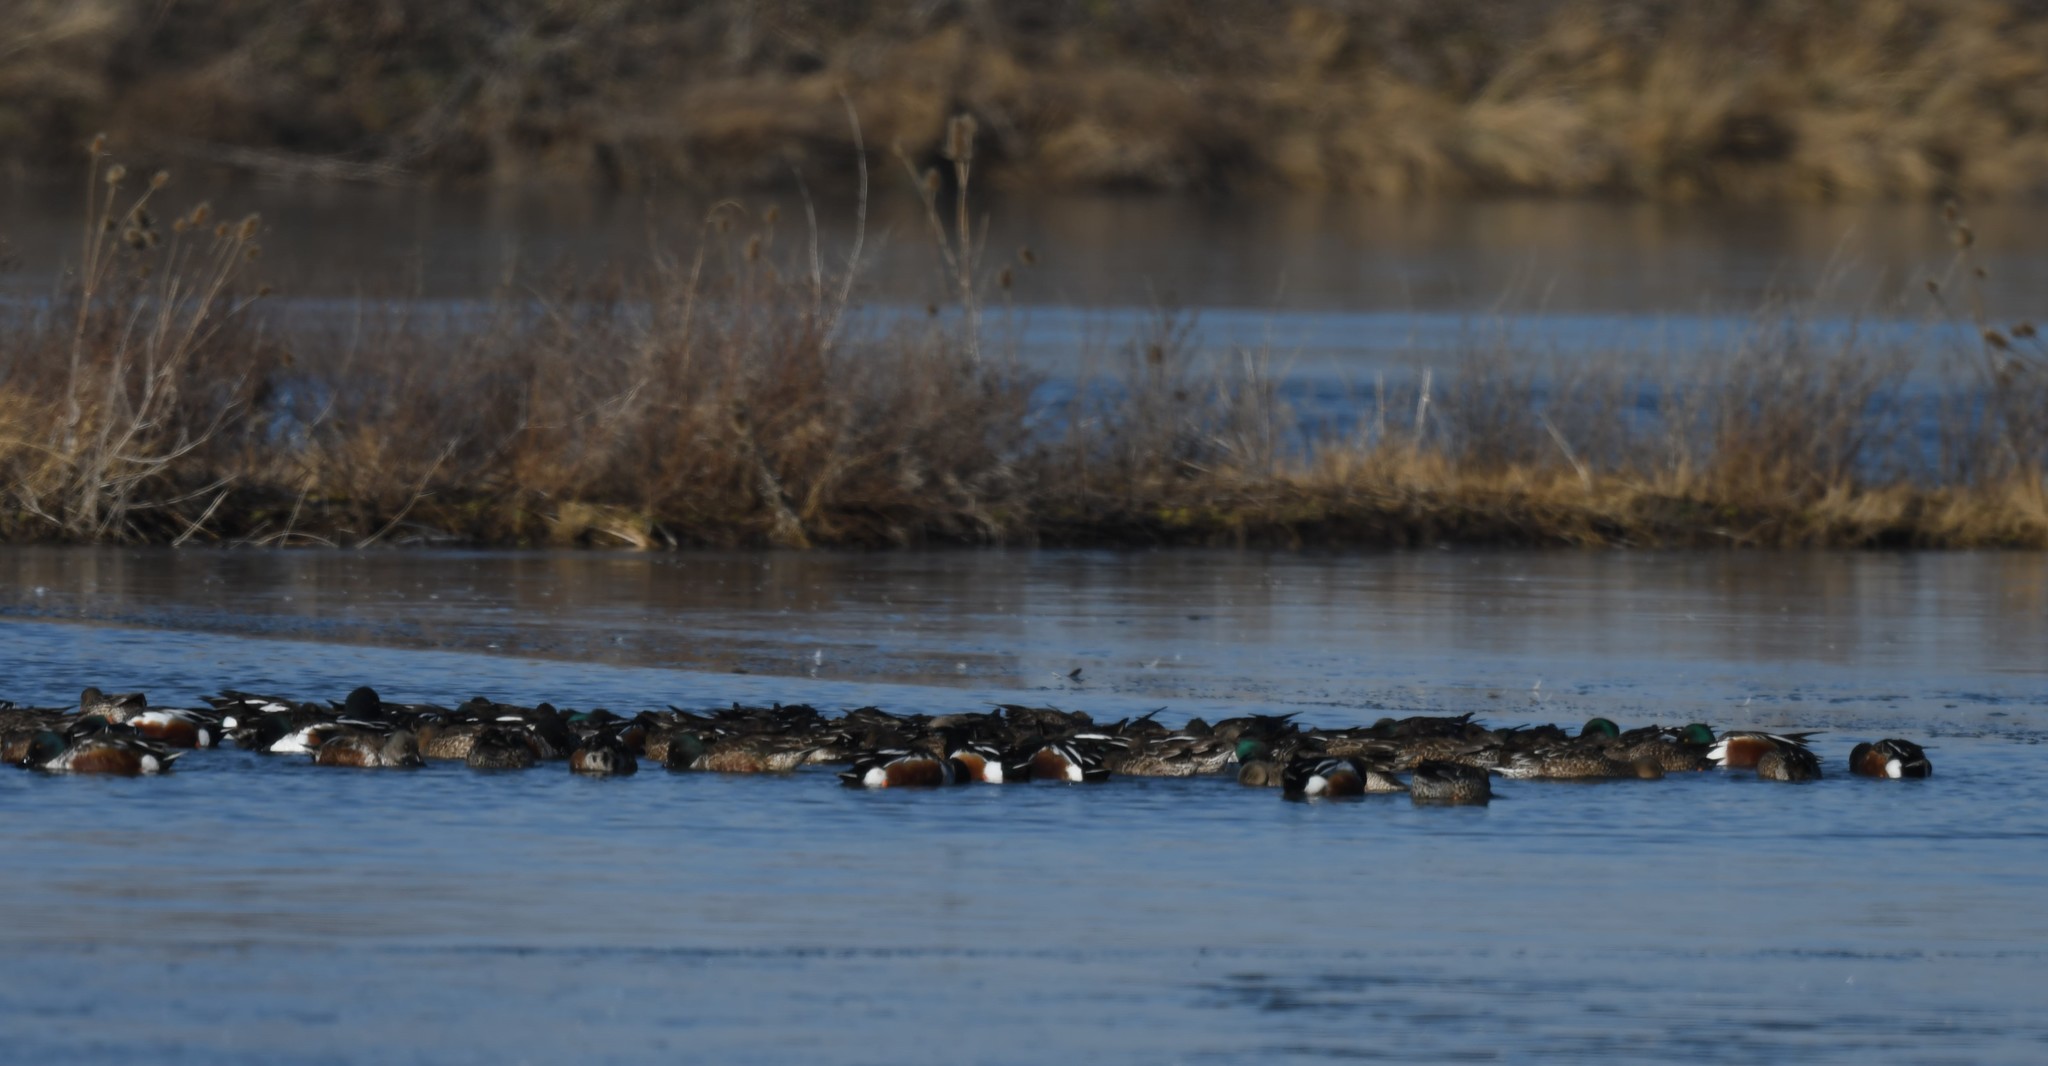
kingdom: Animalia
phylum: Chordata
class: Aves
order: Anseriformes
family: Anatidae
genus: Spatula
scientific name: Spatula clypeata
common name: Northern shoveler
